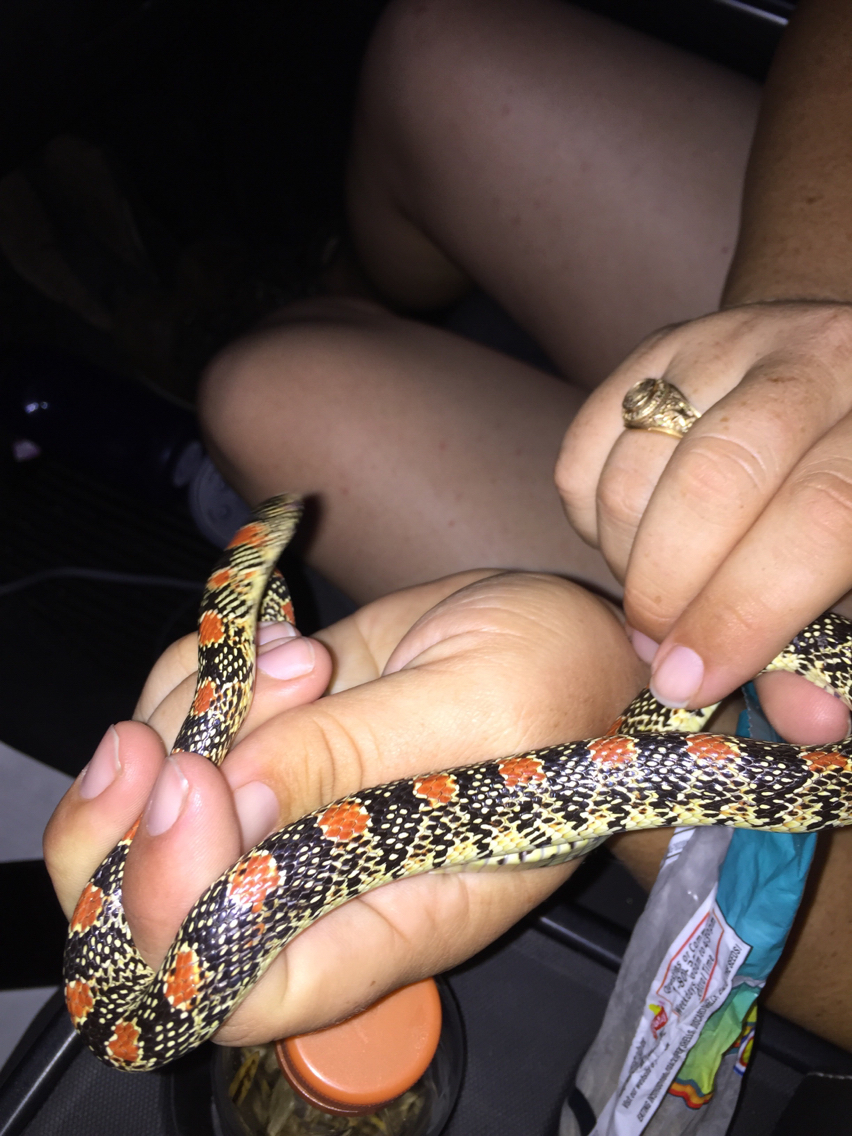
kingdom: Animalia
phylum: Chordata
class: Squamata
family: Colubridae
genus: Rhinocheilus
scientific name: Rhinocheilus lecontei
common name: Longnose snake
